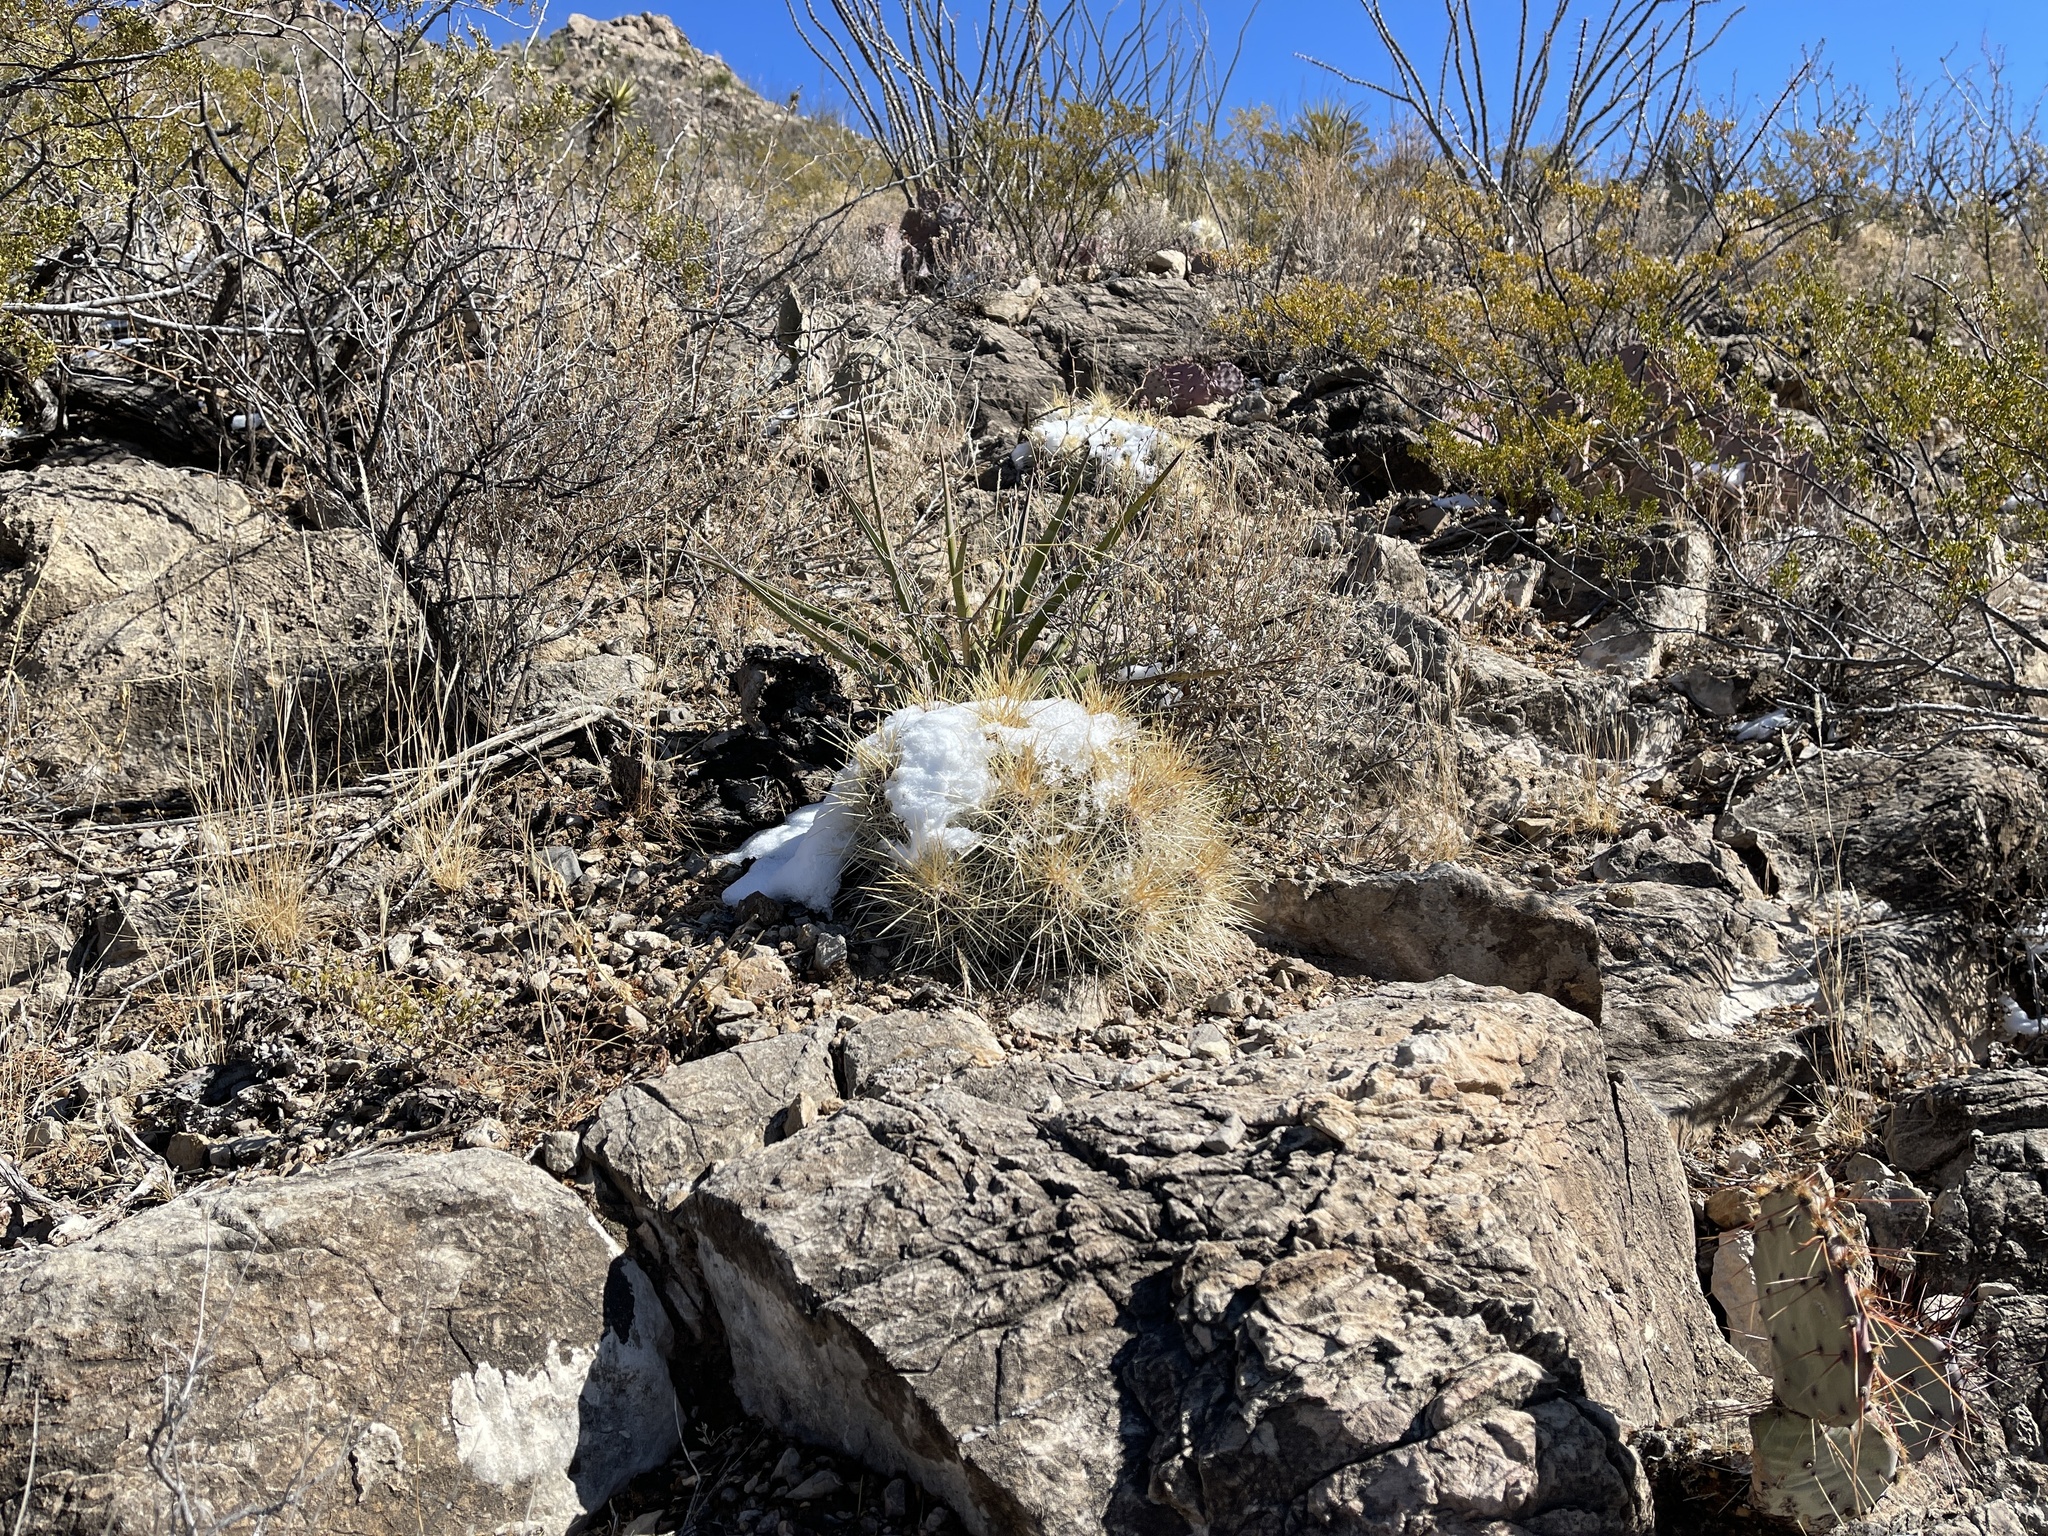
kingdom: Plantae
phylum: Tracheophyta
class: Magnoliopsida
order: Caryophyllales
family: Cactaceae
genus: Echinocereus
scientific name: Echinocereus stramineus
